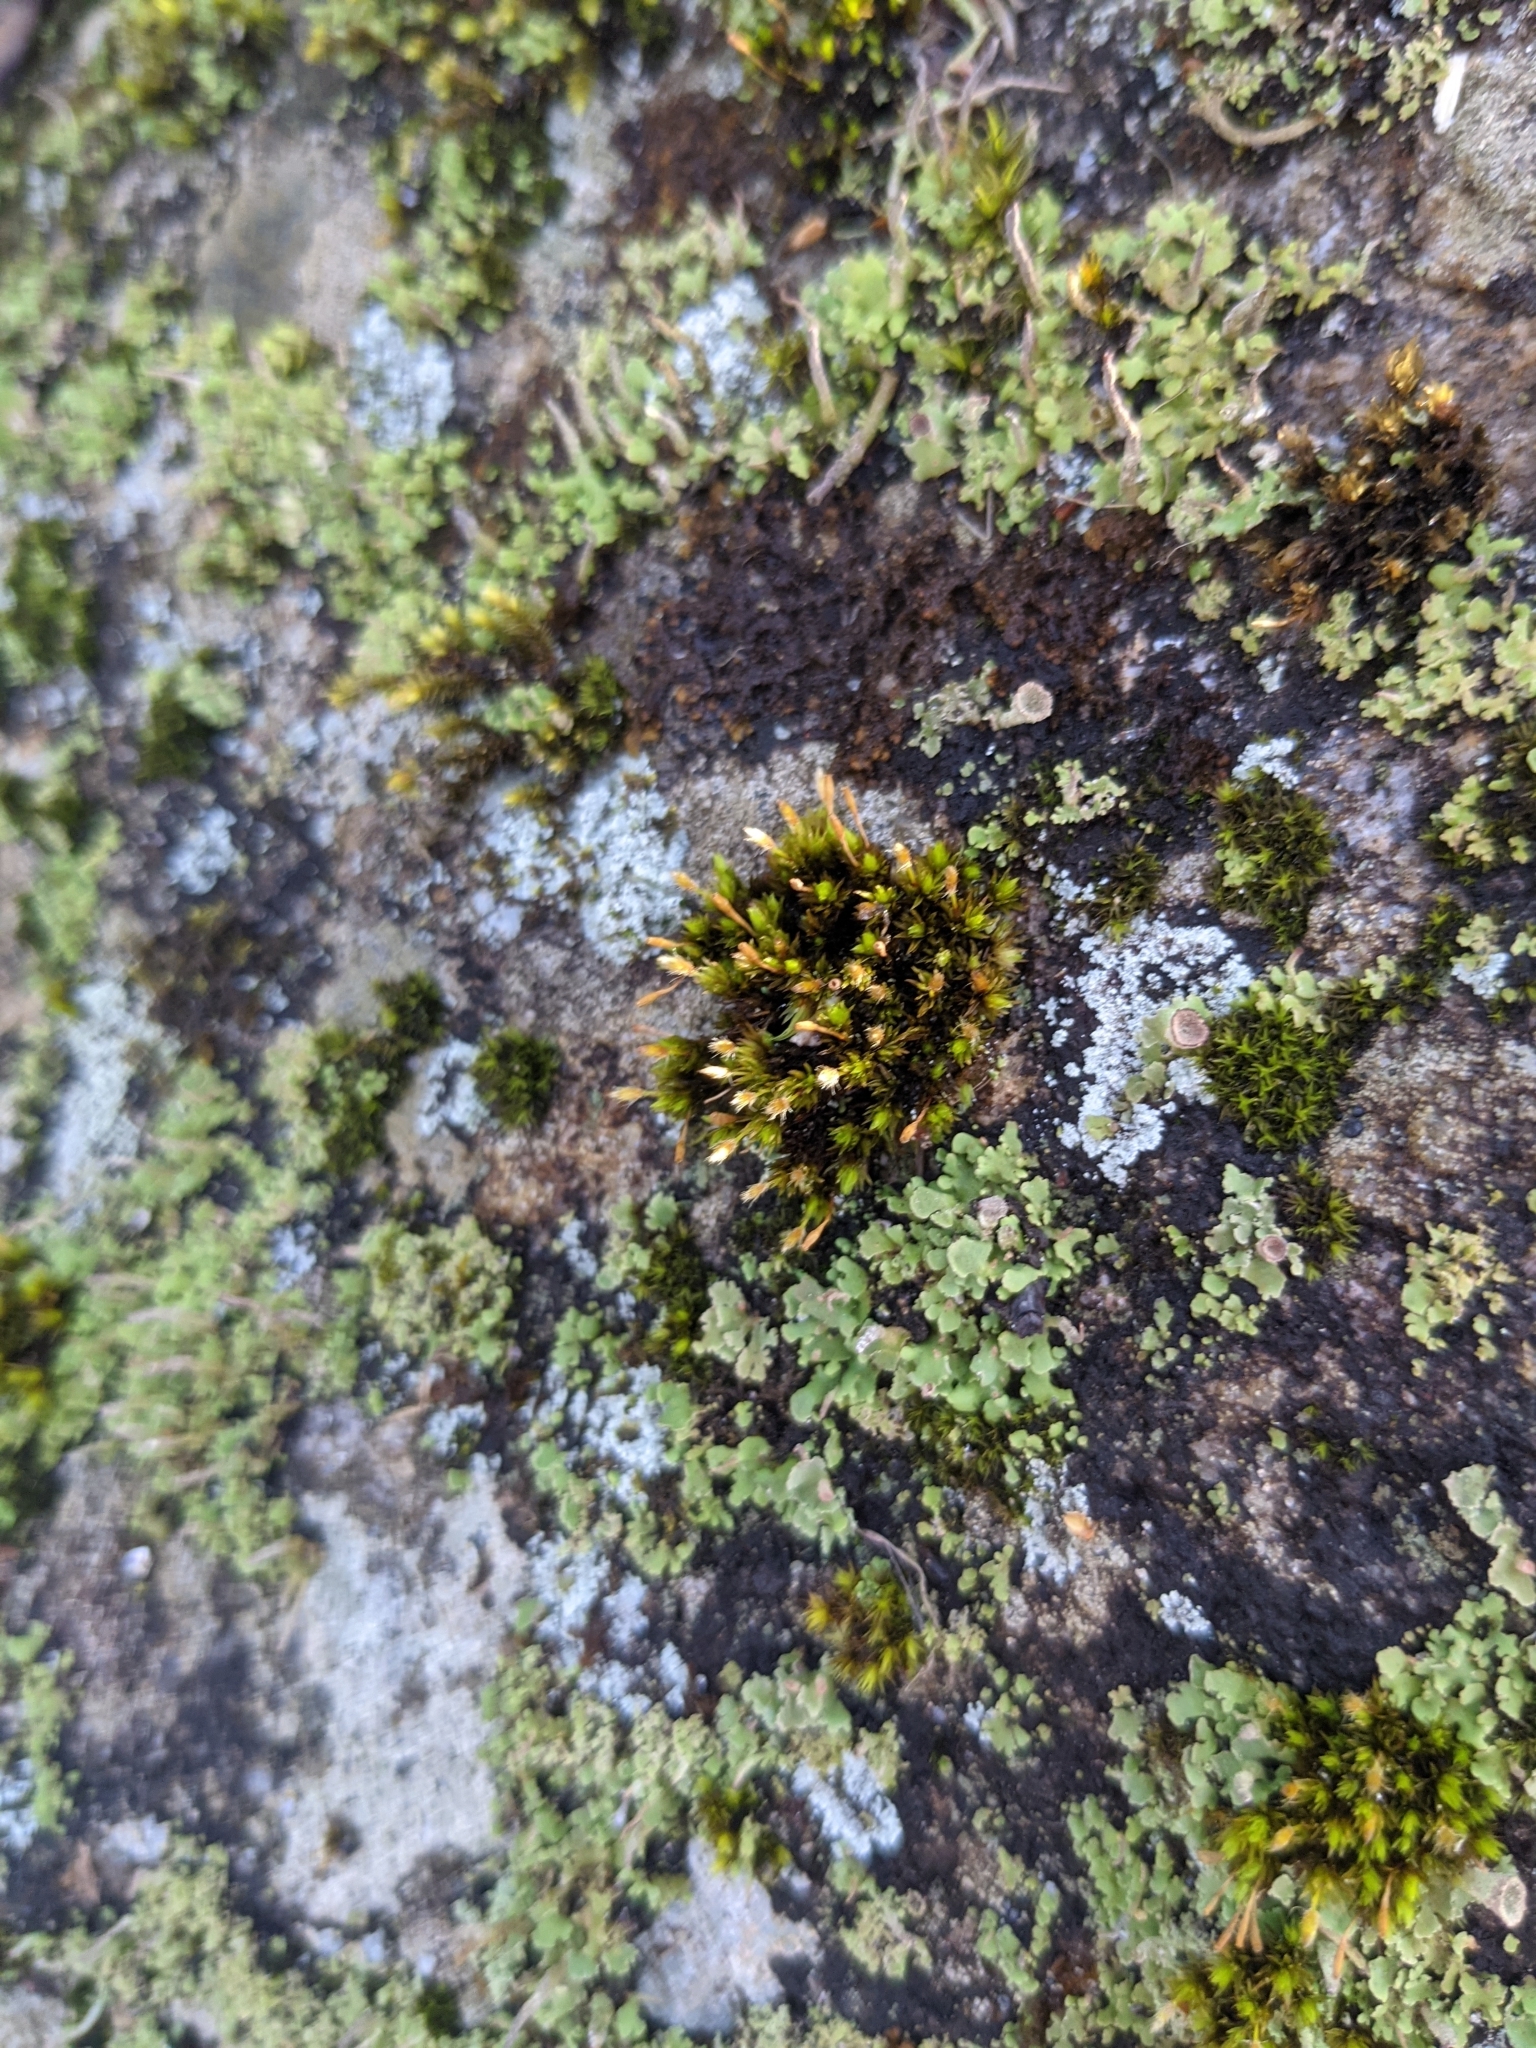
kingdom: Plantae
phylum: Bryophyta
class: Bryopsida
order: Orthotrichales
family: Orthotrichaceae
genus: Ulota
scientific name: Ulota crispa
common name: Crisped pincushion moss
